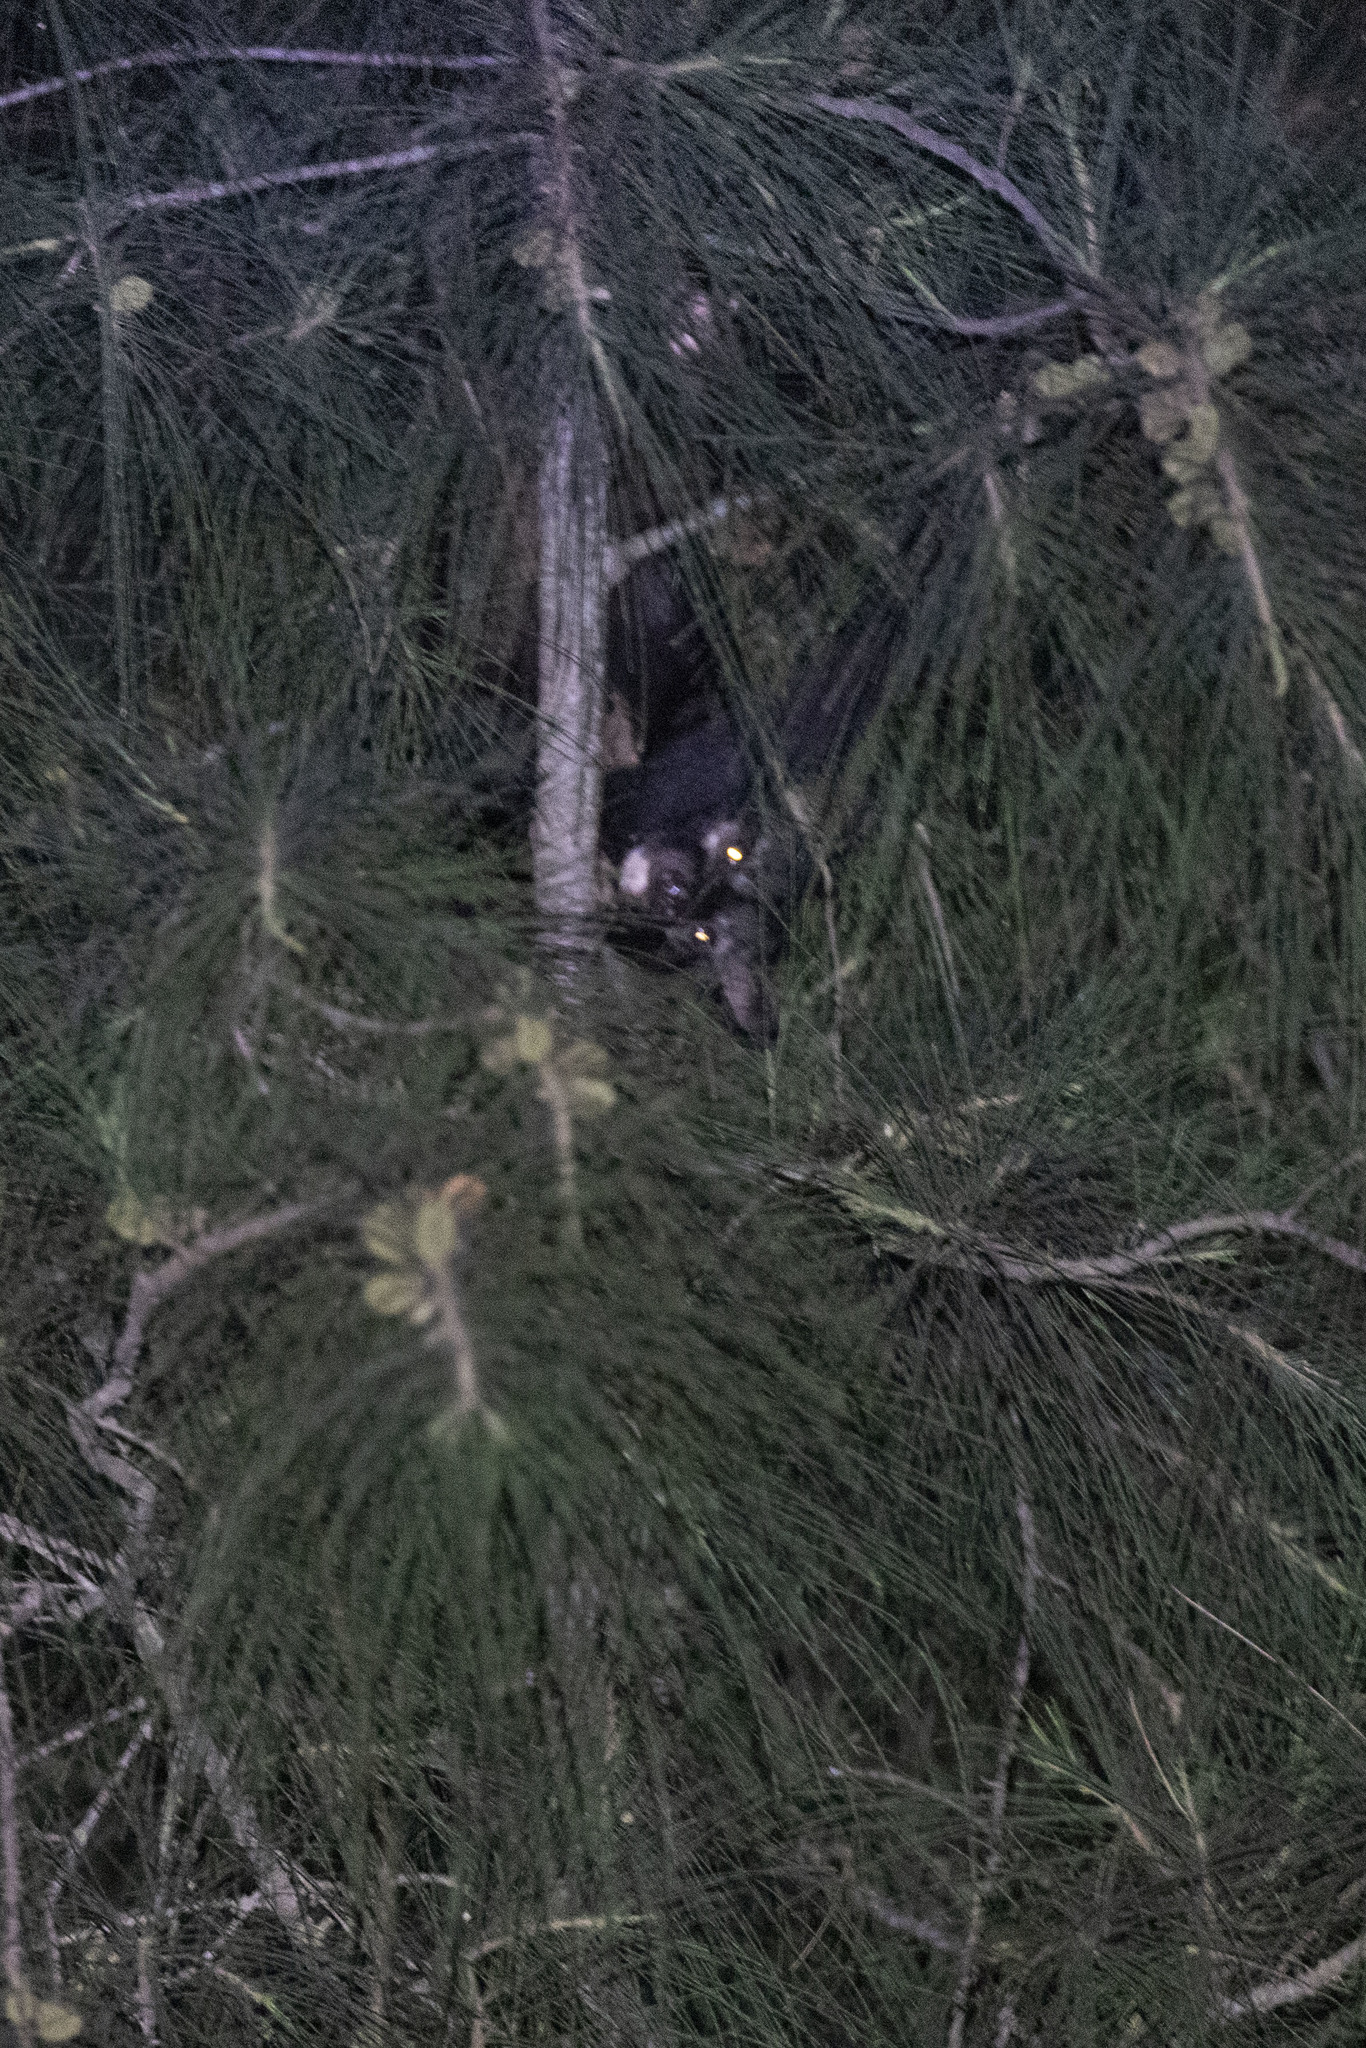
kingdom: Animalia
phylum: Chordata
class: Mammalia
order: Carnivora
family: Viverridae
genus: Paradoxurus
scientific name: Paradoxurus hermaphroditus
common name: Common palm civet
